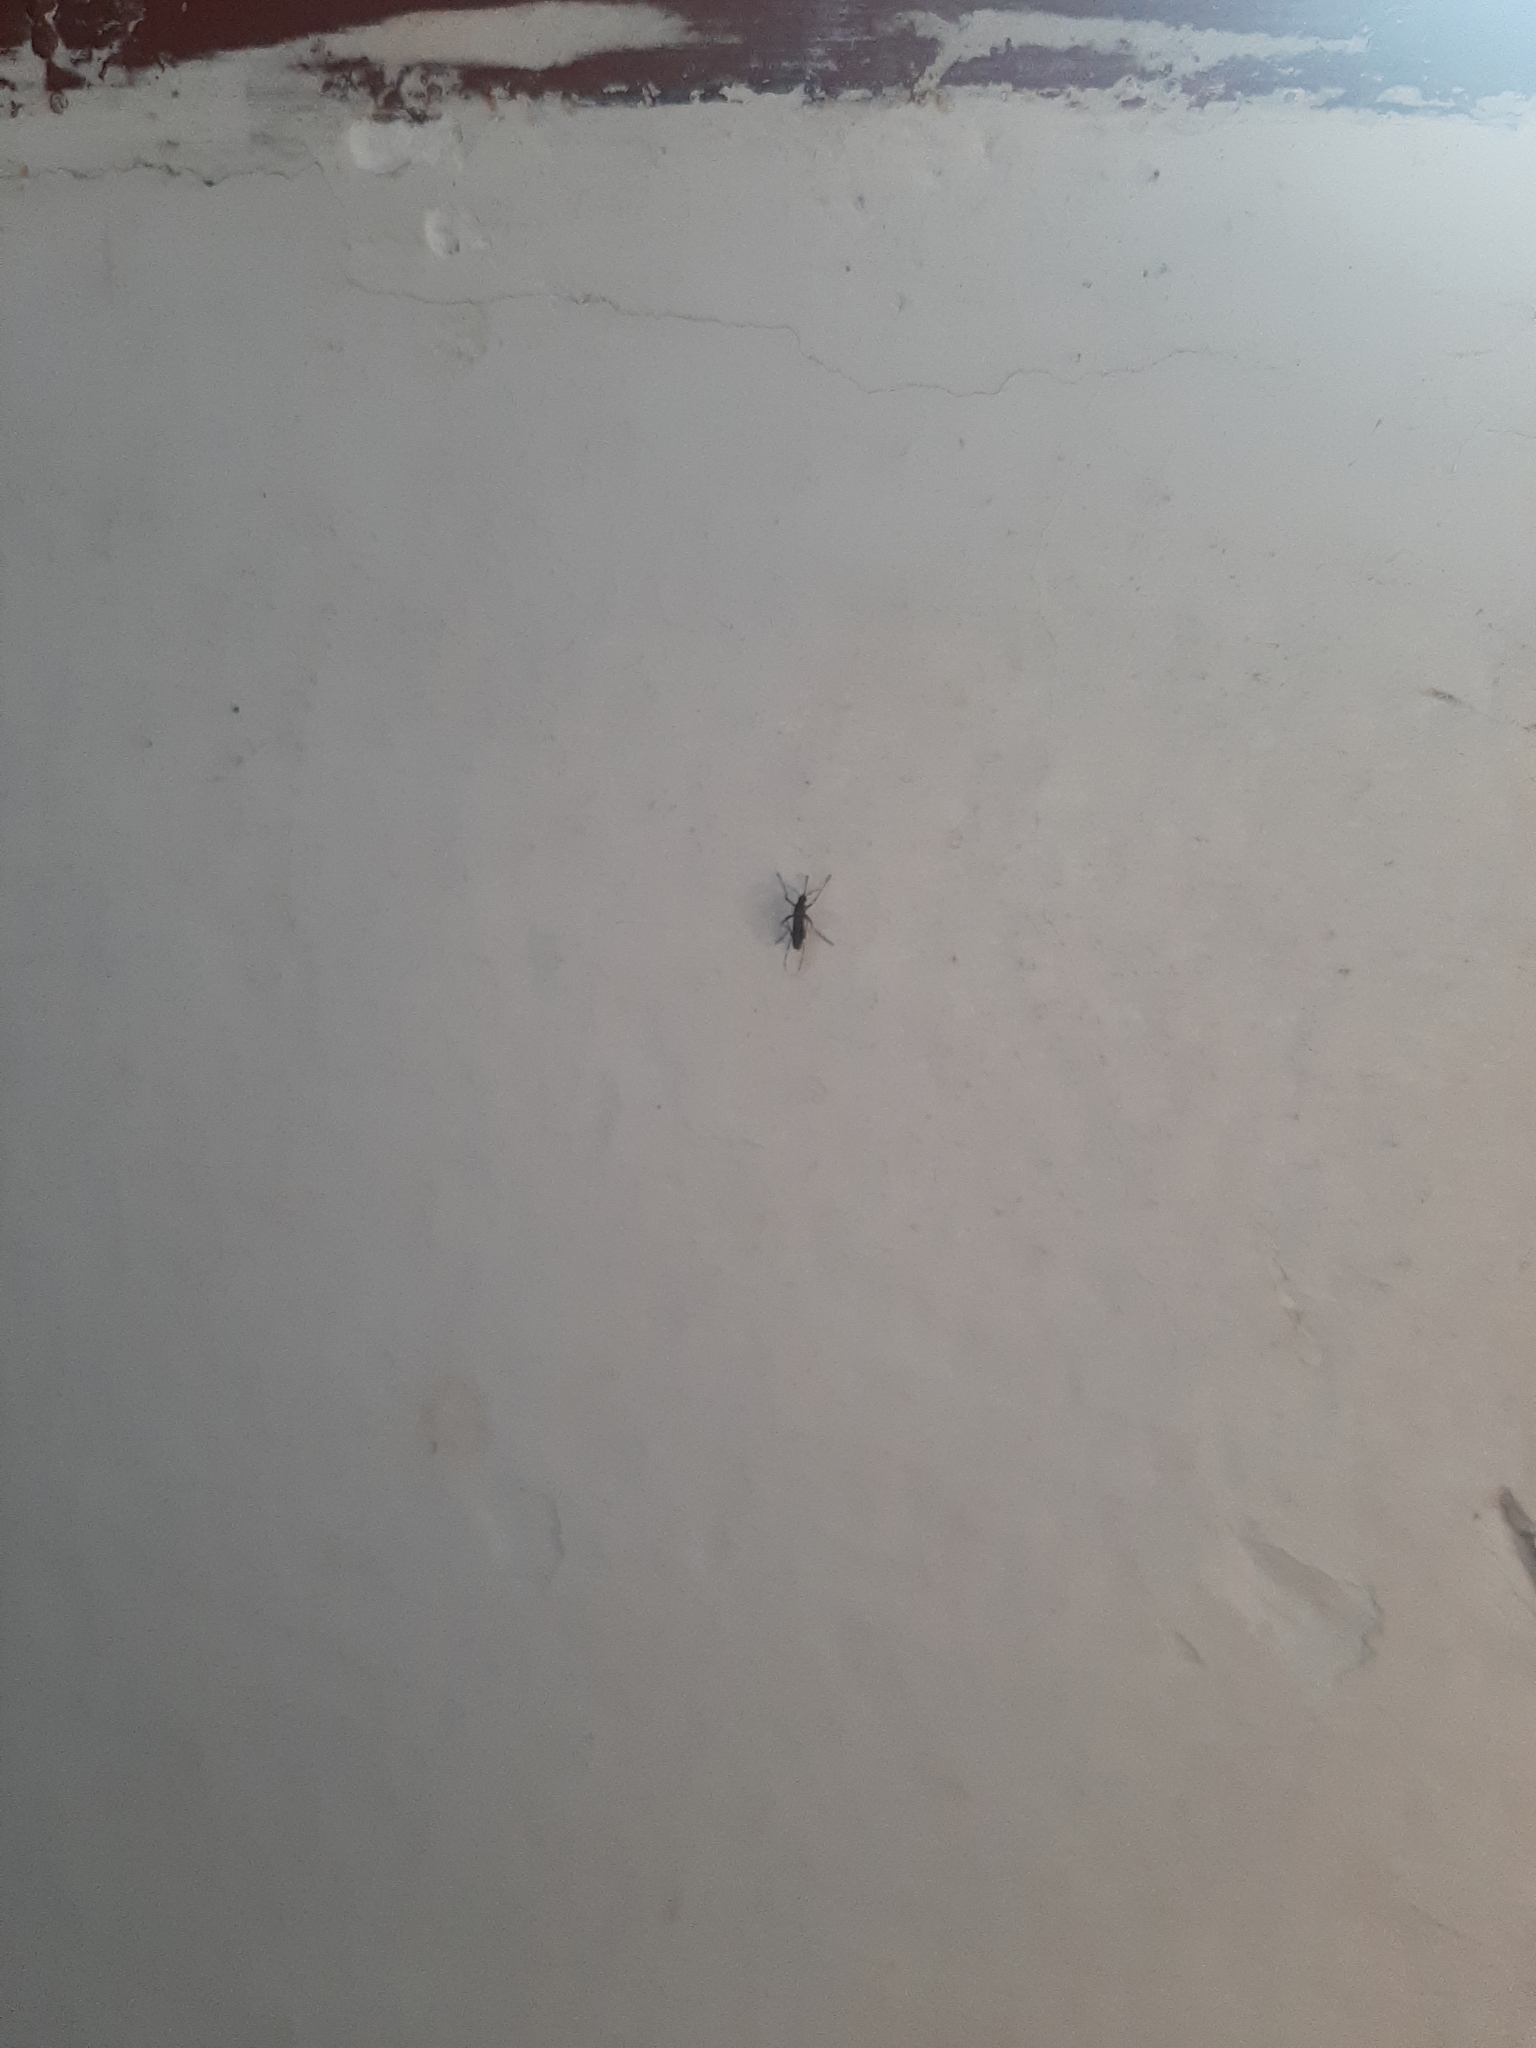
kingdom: Animalia
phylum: Arthropoda
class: Insecta
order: Diptera
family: Culicidae
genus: Aedes
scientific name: Aedes aegypti
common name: Yellow fever mosquito
